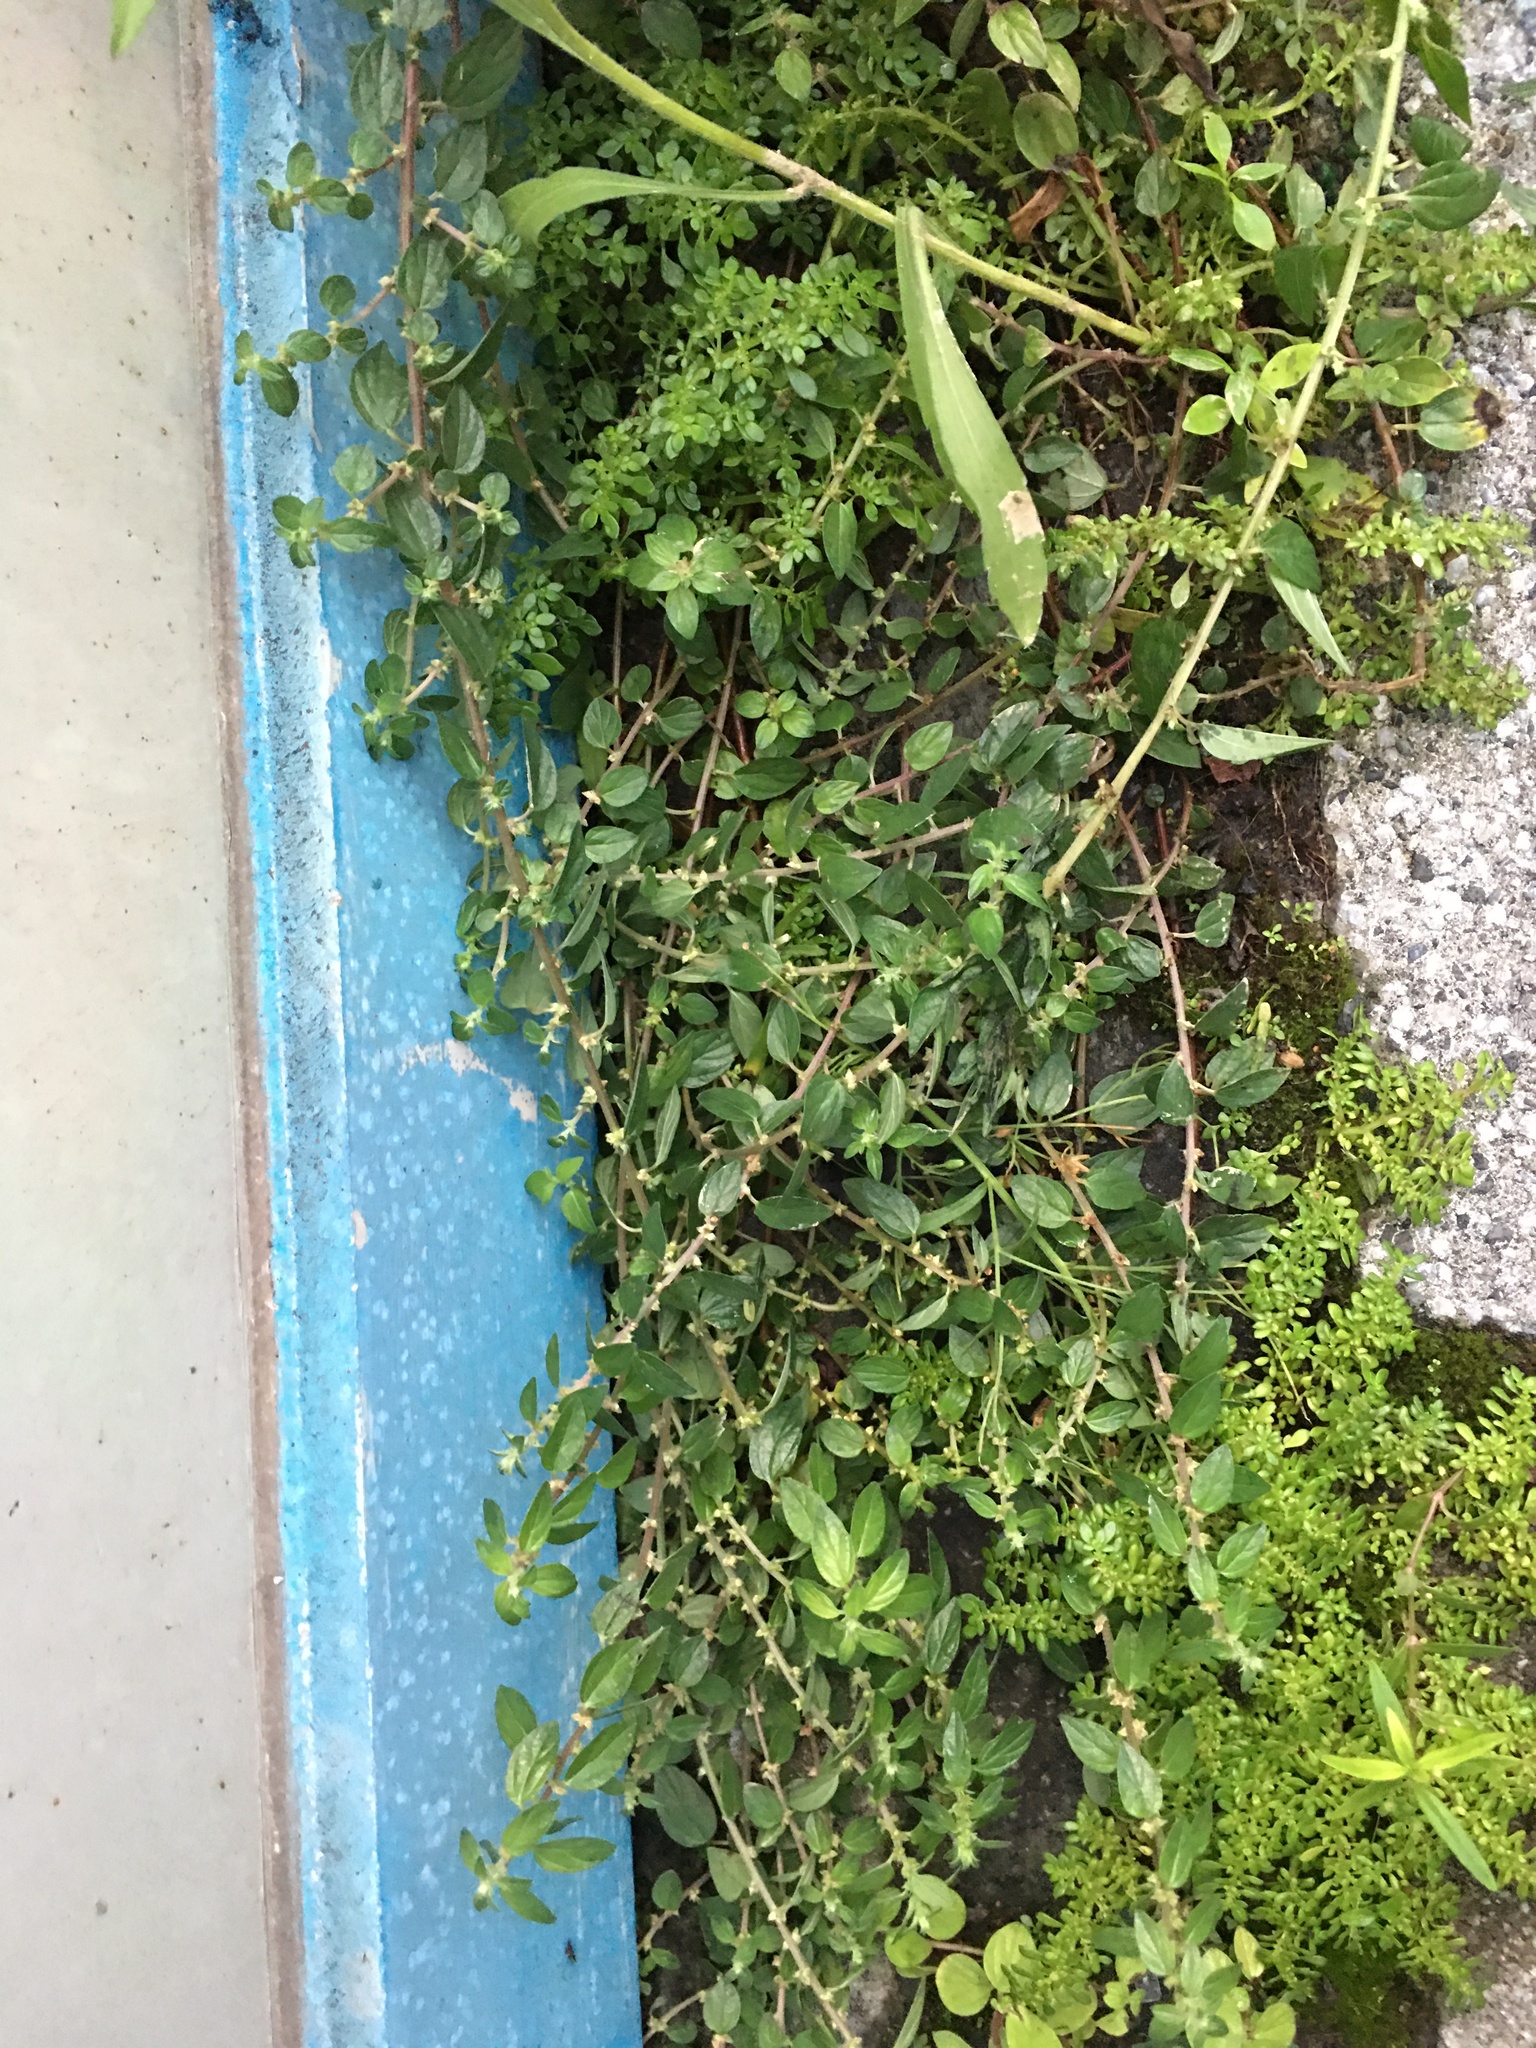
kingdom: Plantae
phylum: Tracheophyta
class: Magnoliopsida
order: Rosales
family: Urticaceae
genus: Pouzolzia
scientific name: Pouzolzia zeylanica
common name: Graceful pouzolzsbush
